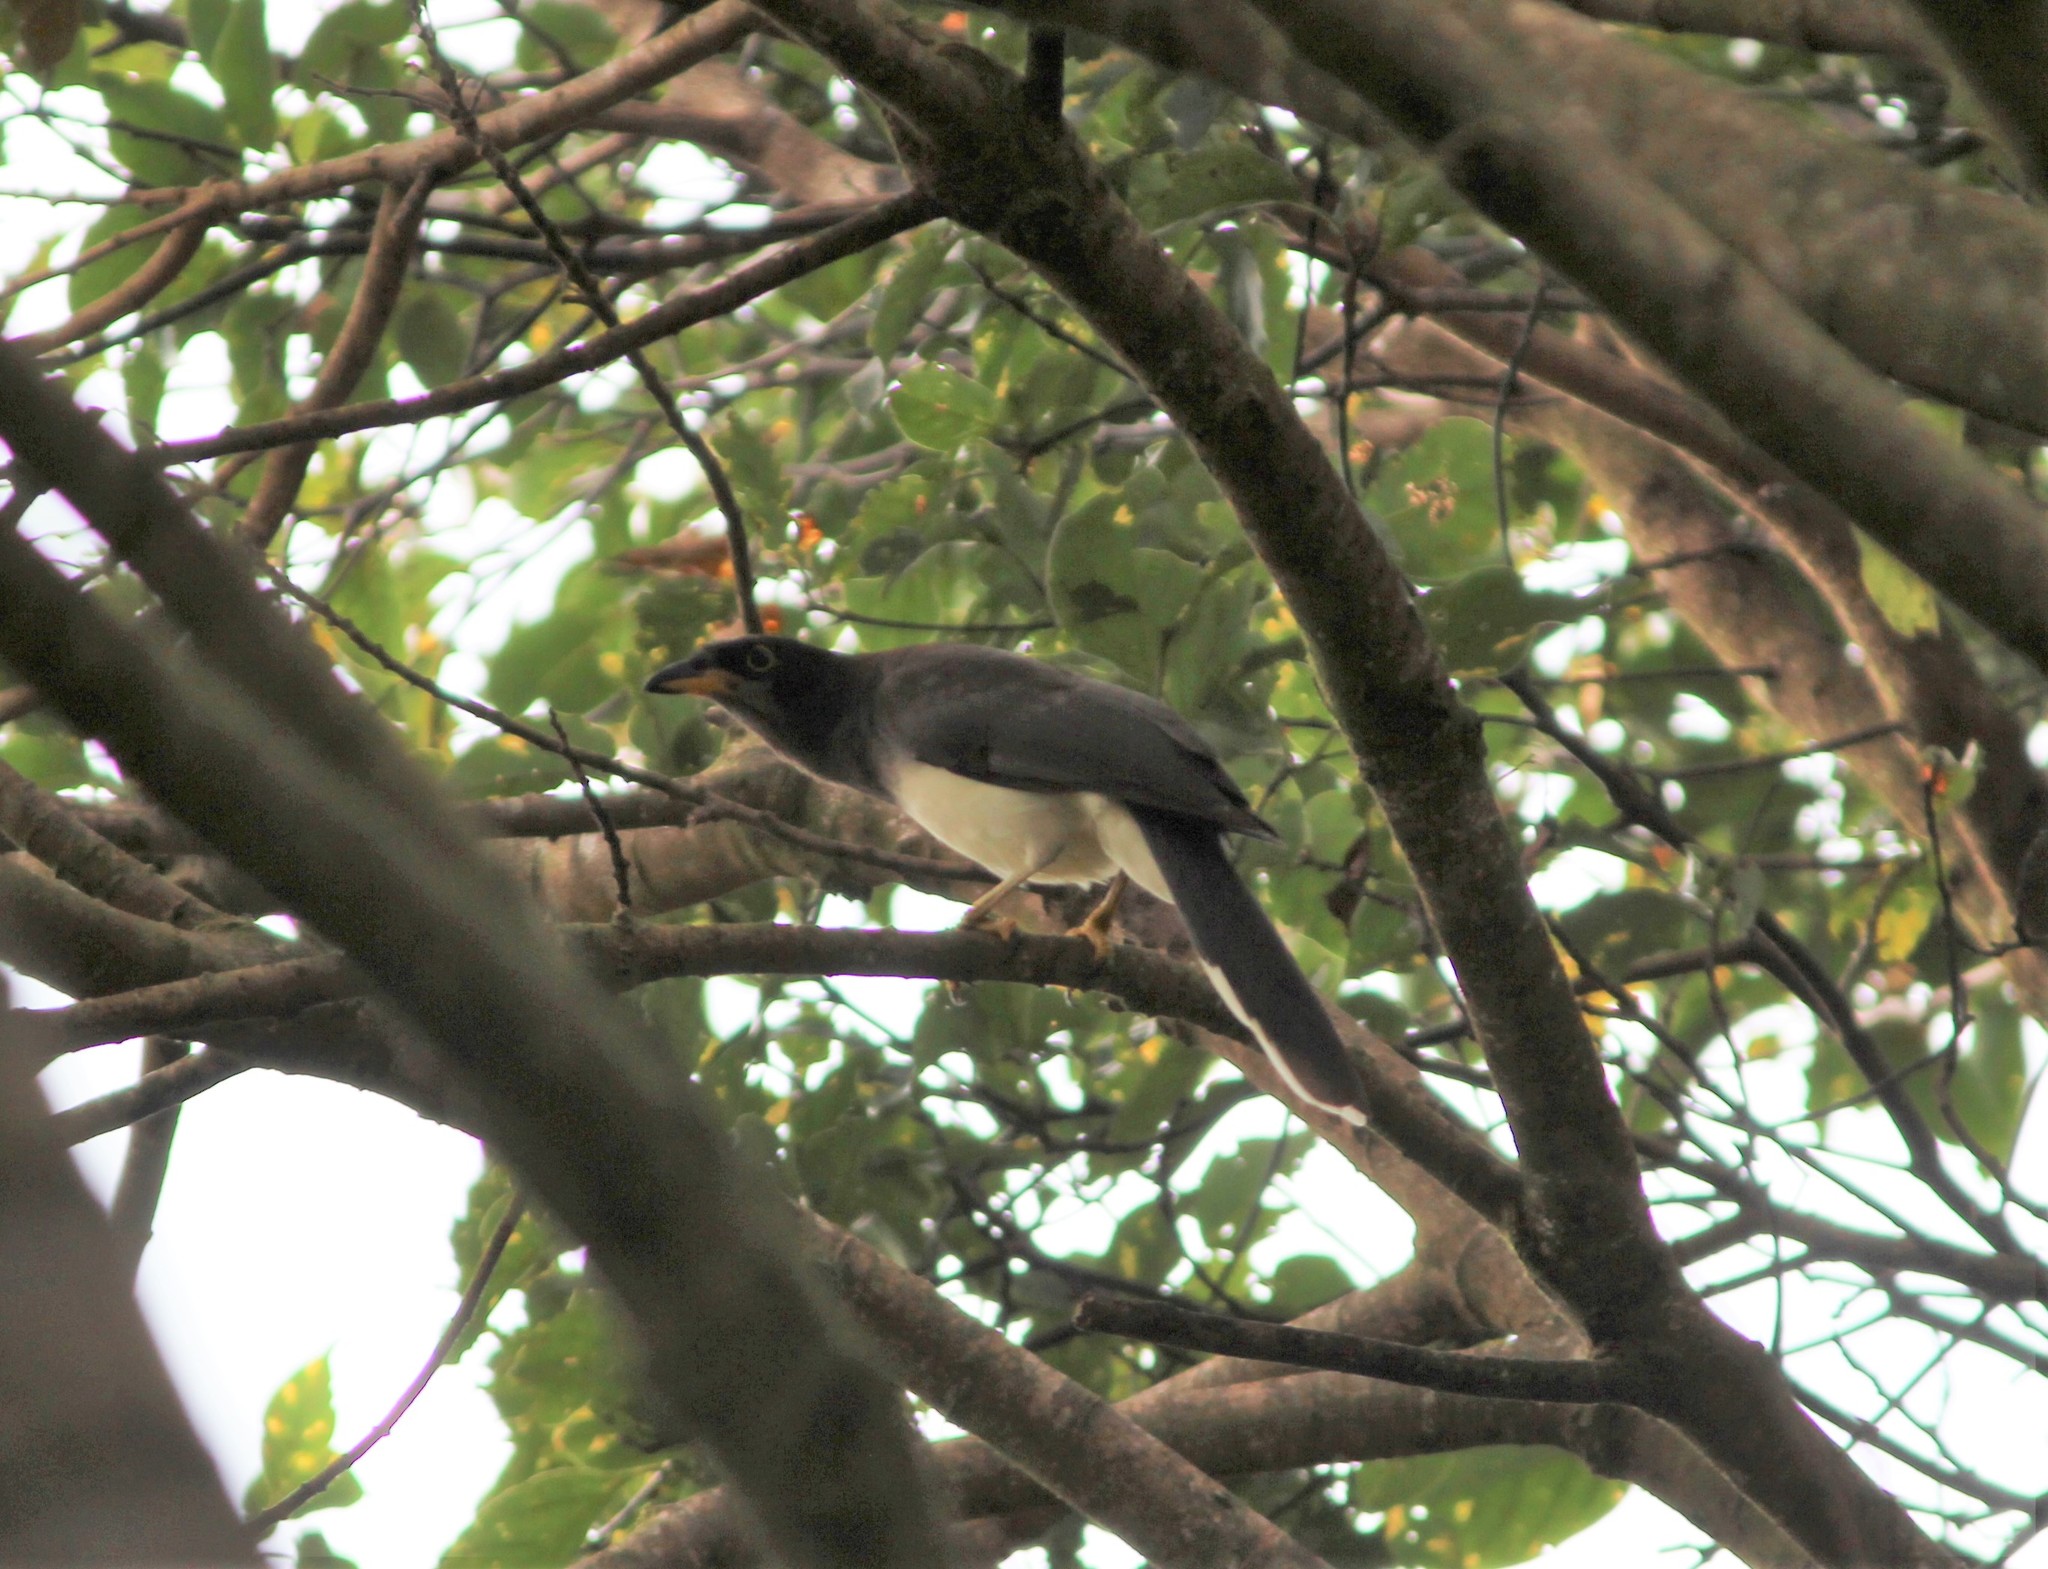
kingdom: Animalia
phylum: Chordata
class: Aves
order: Passeriformes
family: Corvidae
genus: Psilorhinus
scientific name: Psilorhinus morio
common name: Brown jay
